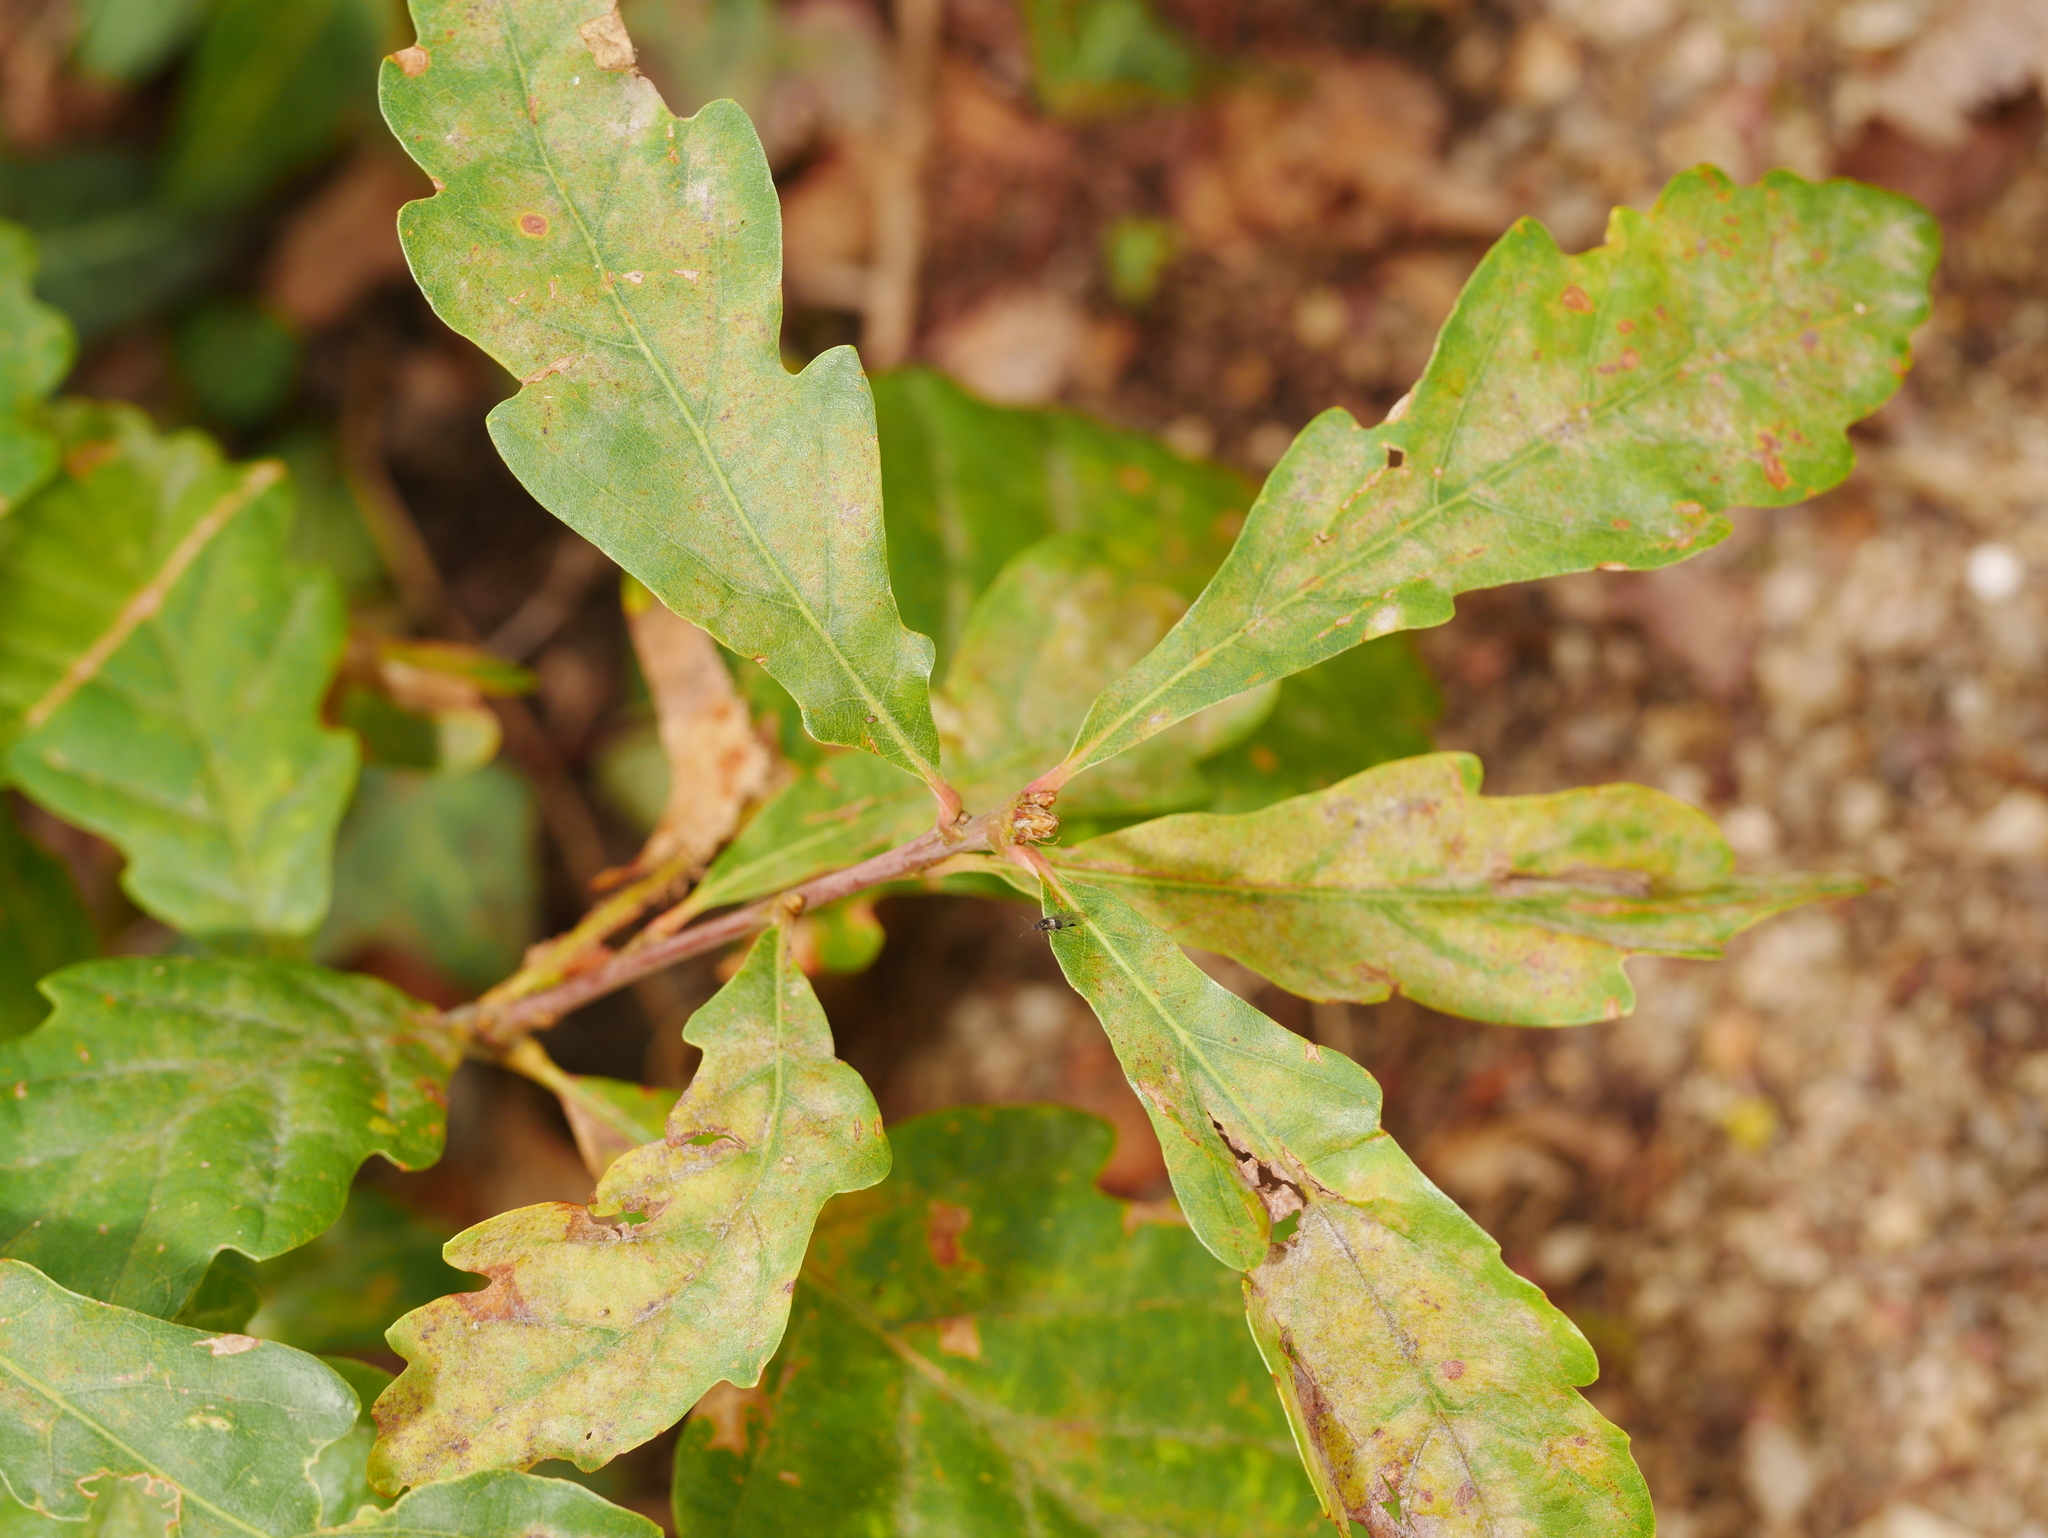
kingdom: Fungi
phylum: Ascomycota
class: Leotiomycetes
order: Helotiales
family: Erysiphaceae
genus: Erysiphe
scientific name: Erysiphe
